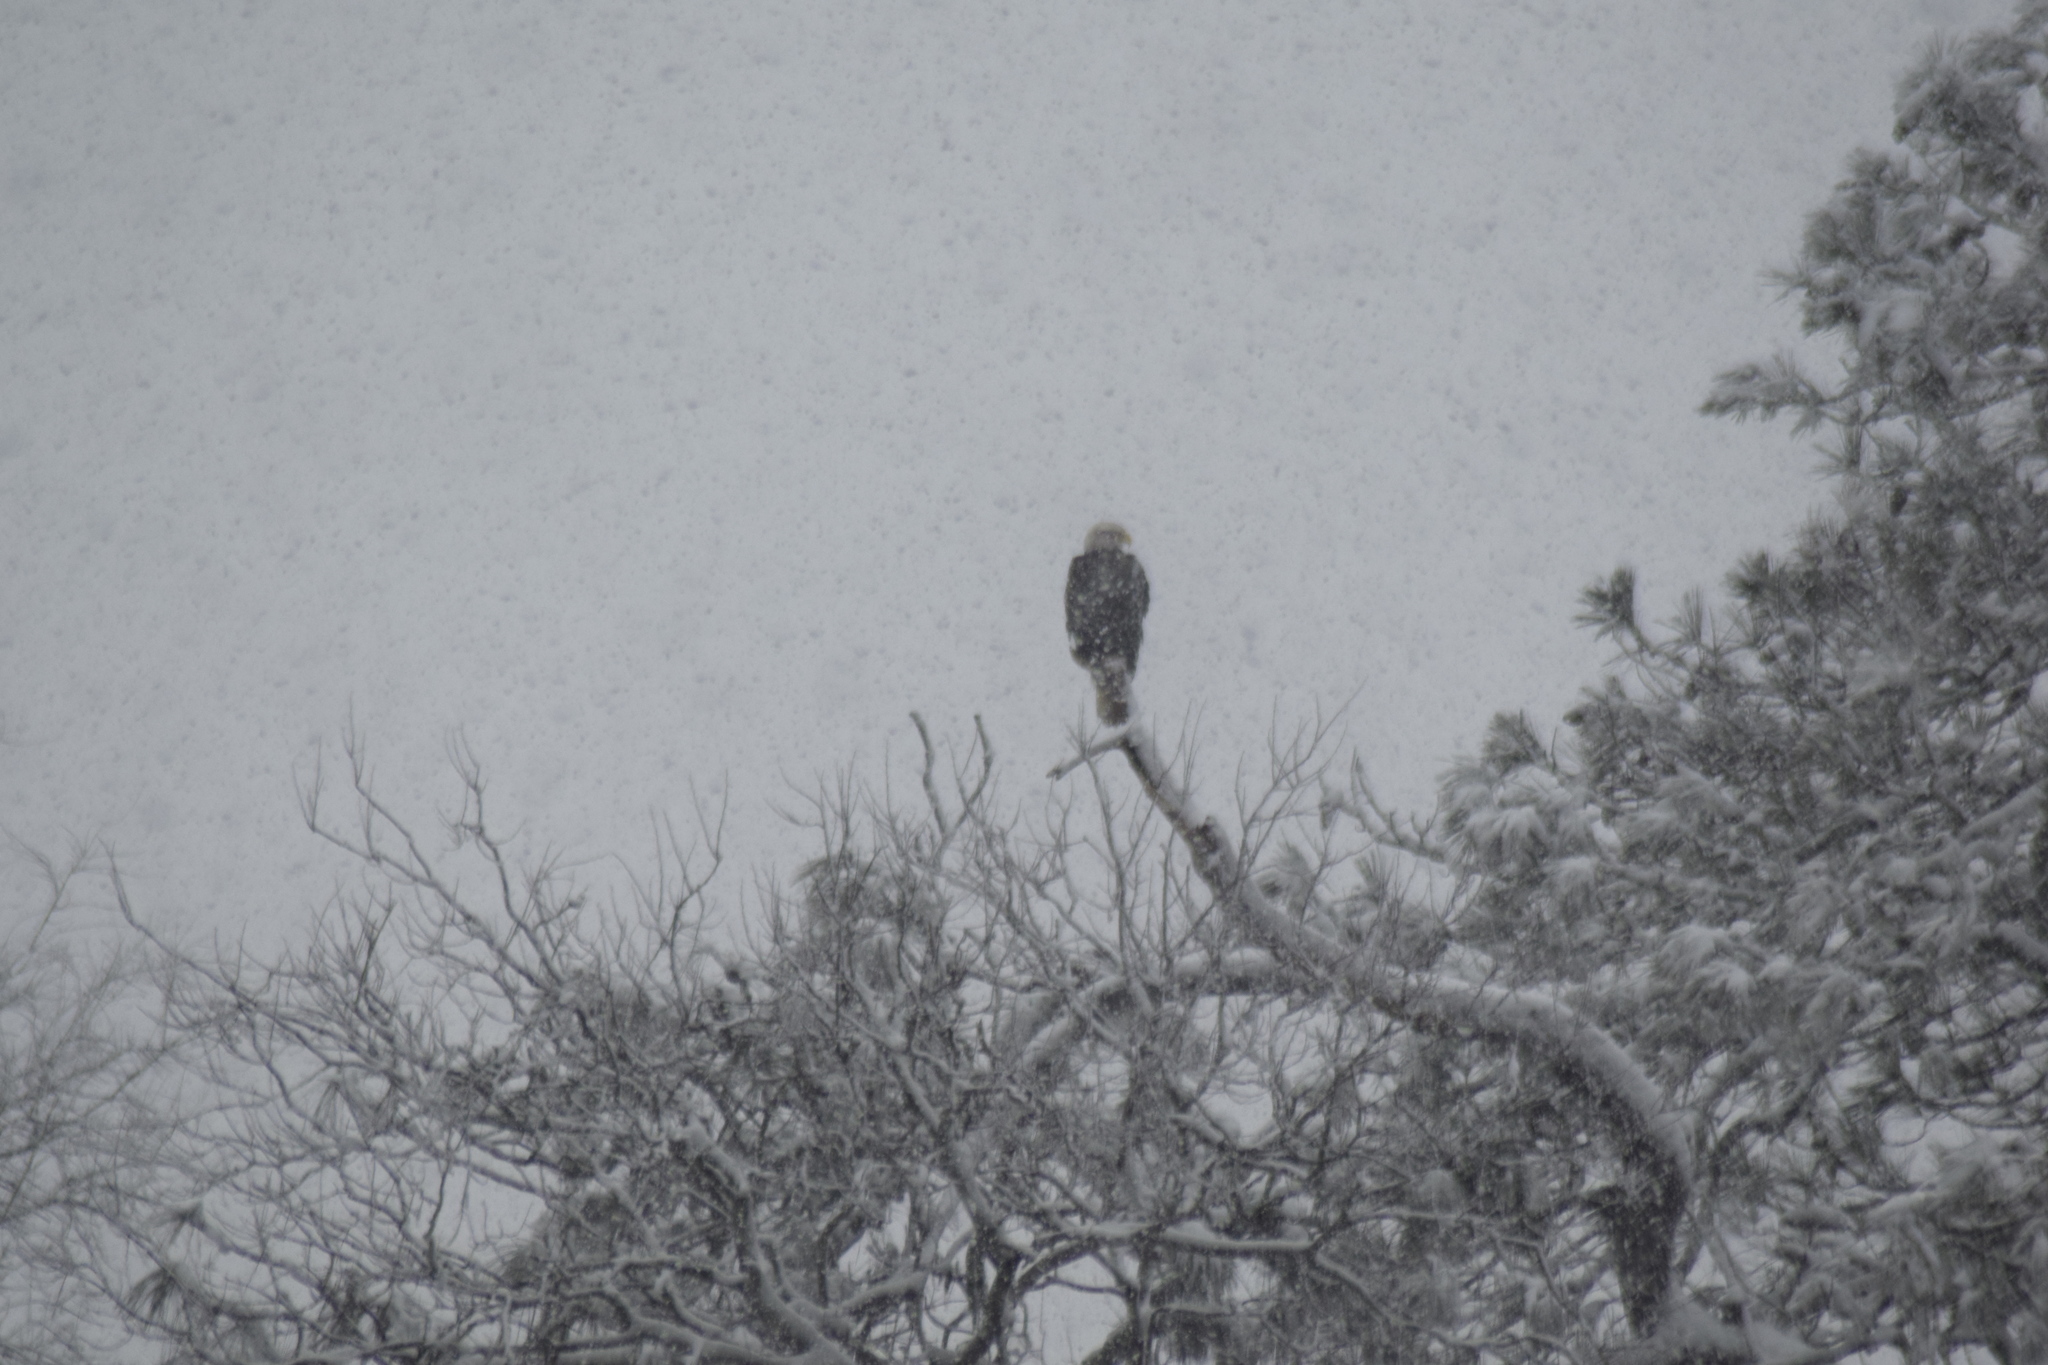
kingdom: Animalia
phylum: Chordata
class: Aves
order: Accipitriformes
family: Accipitridae
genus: Haliaeetus
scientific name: Haliaeetus leucocephalus
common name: Bald eagle
